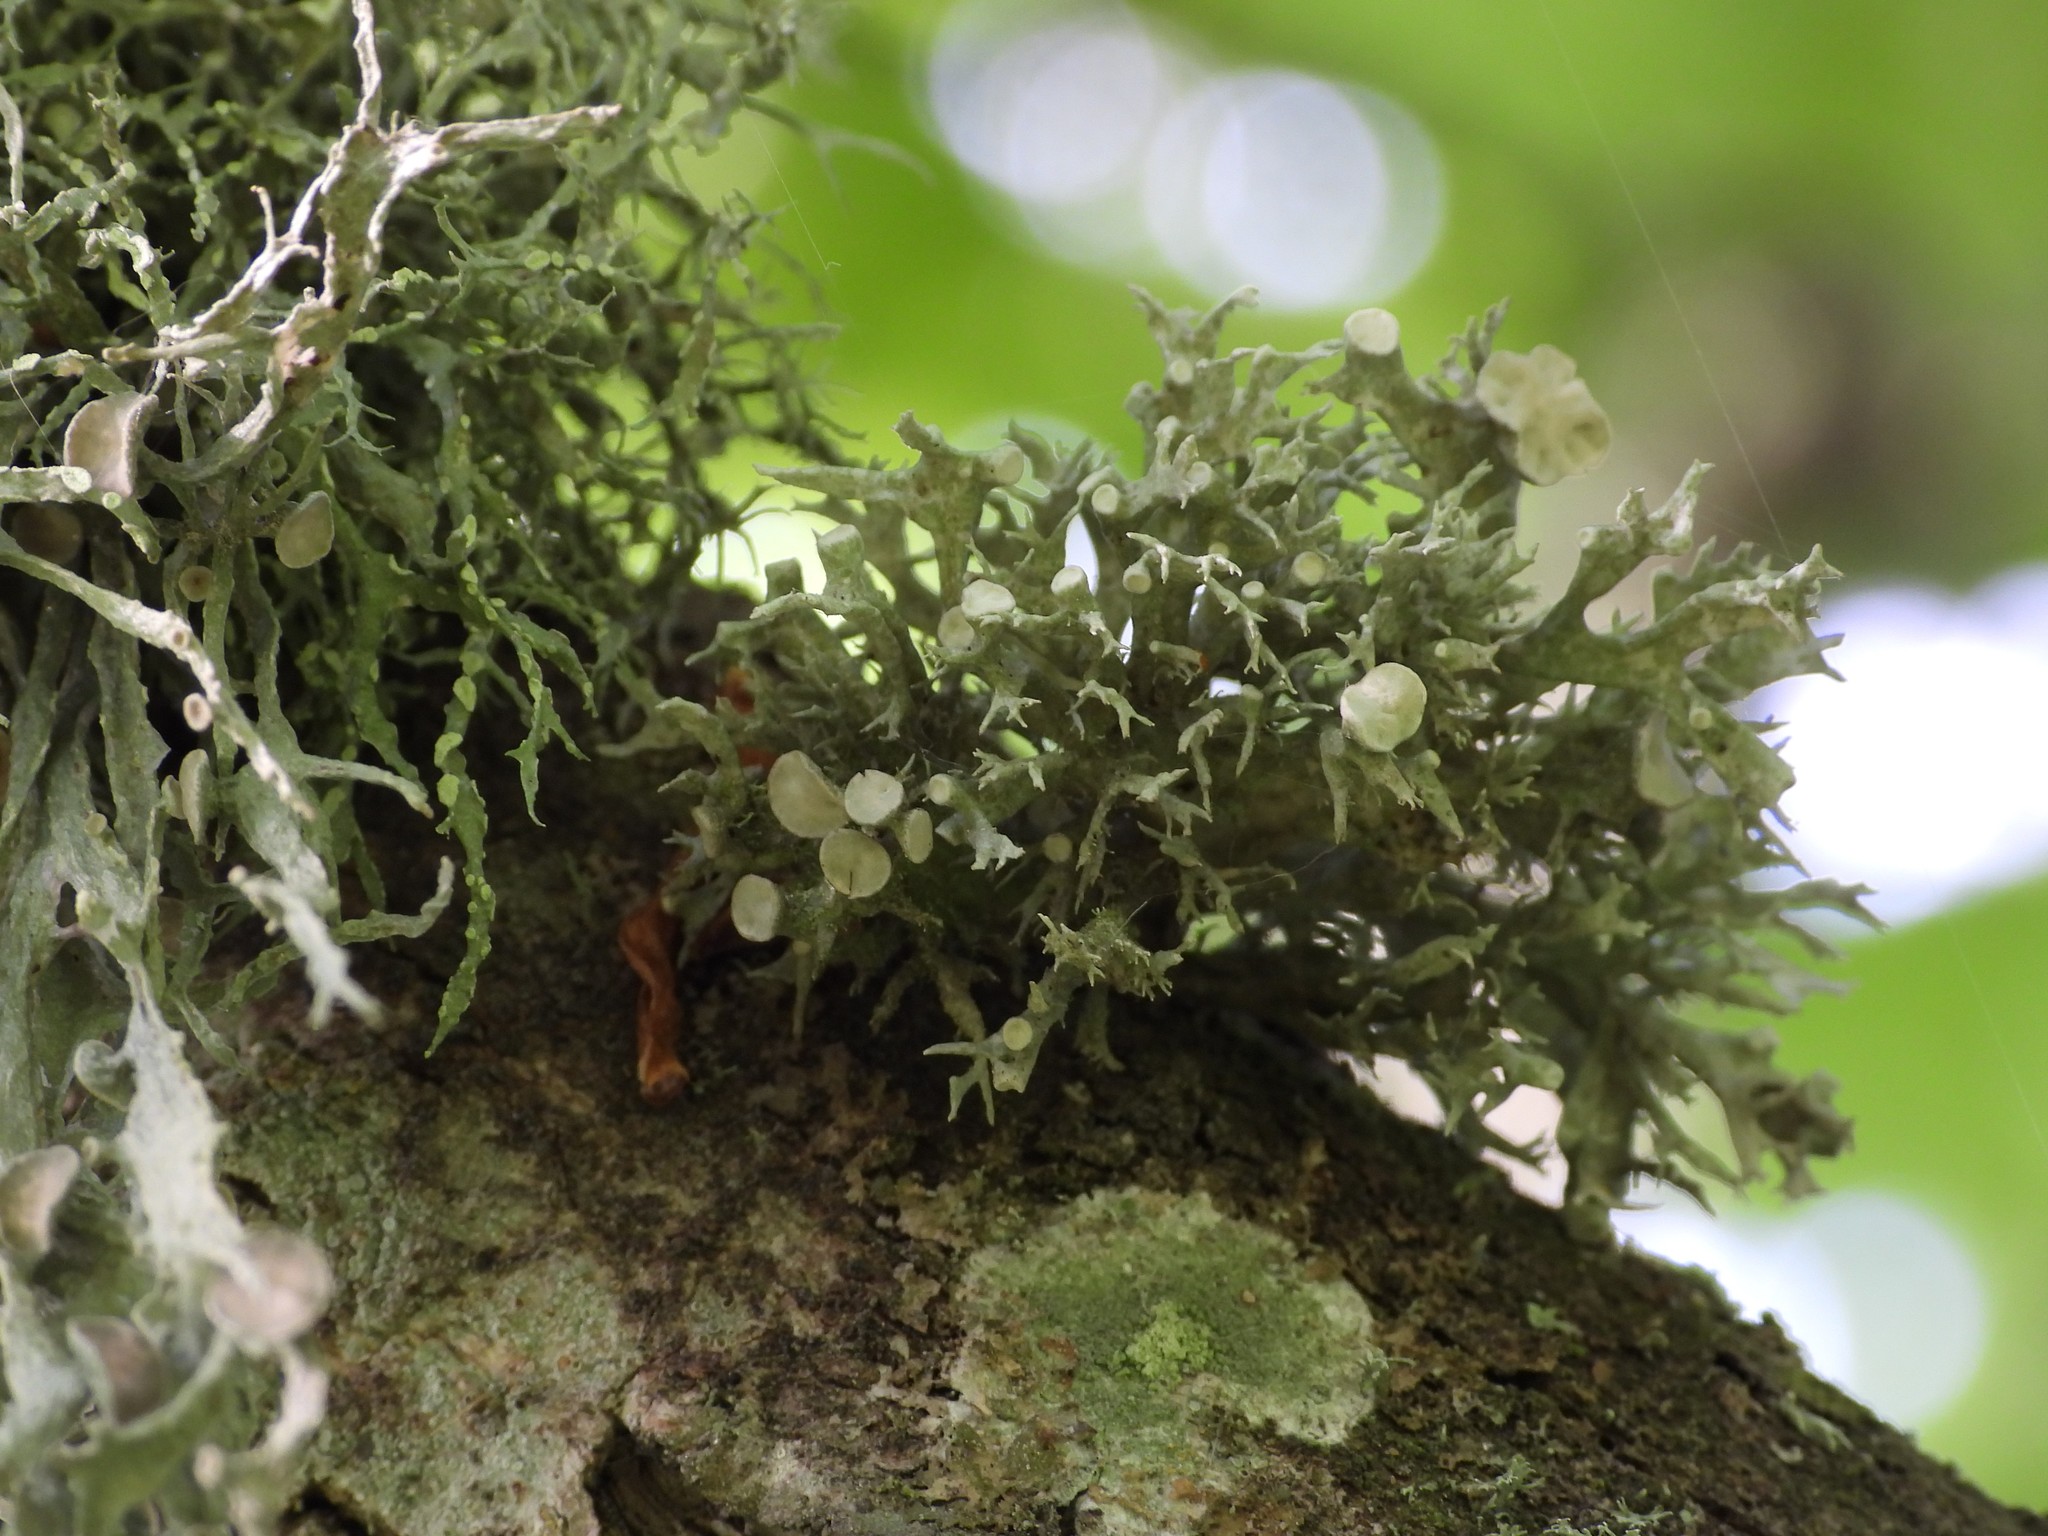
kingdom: Fungi
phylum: Ascomycota
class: Lecanoromycetes
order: Lecanorales
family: Ramalinaceae
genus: Ramalina
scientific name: Ramalina fastigiata
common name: Dotted ribbon lichen
